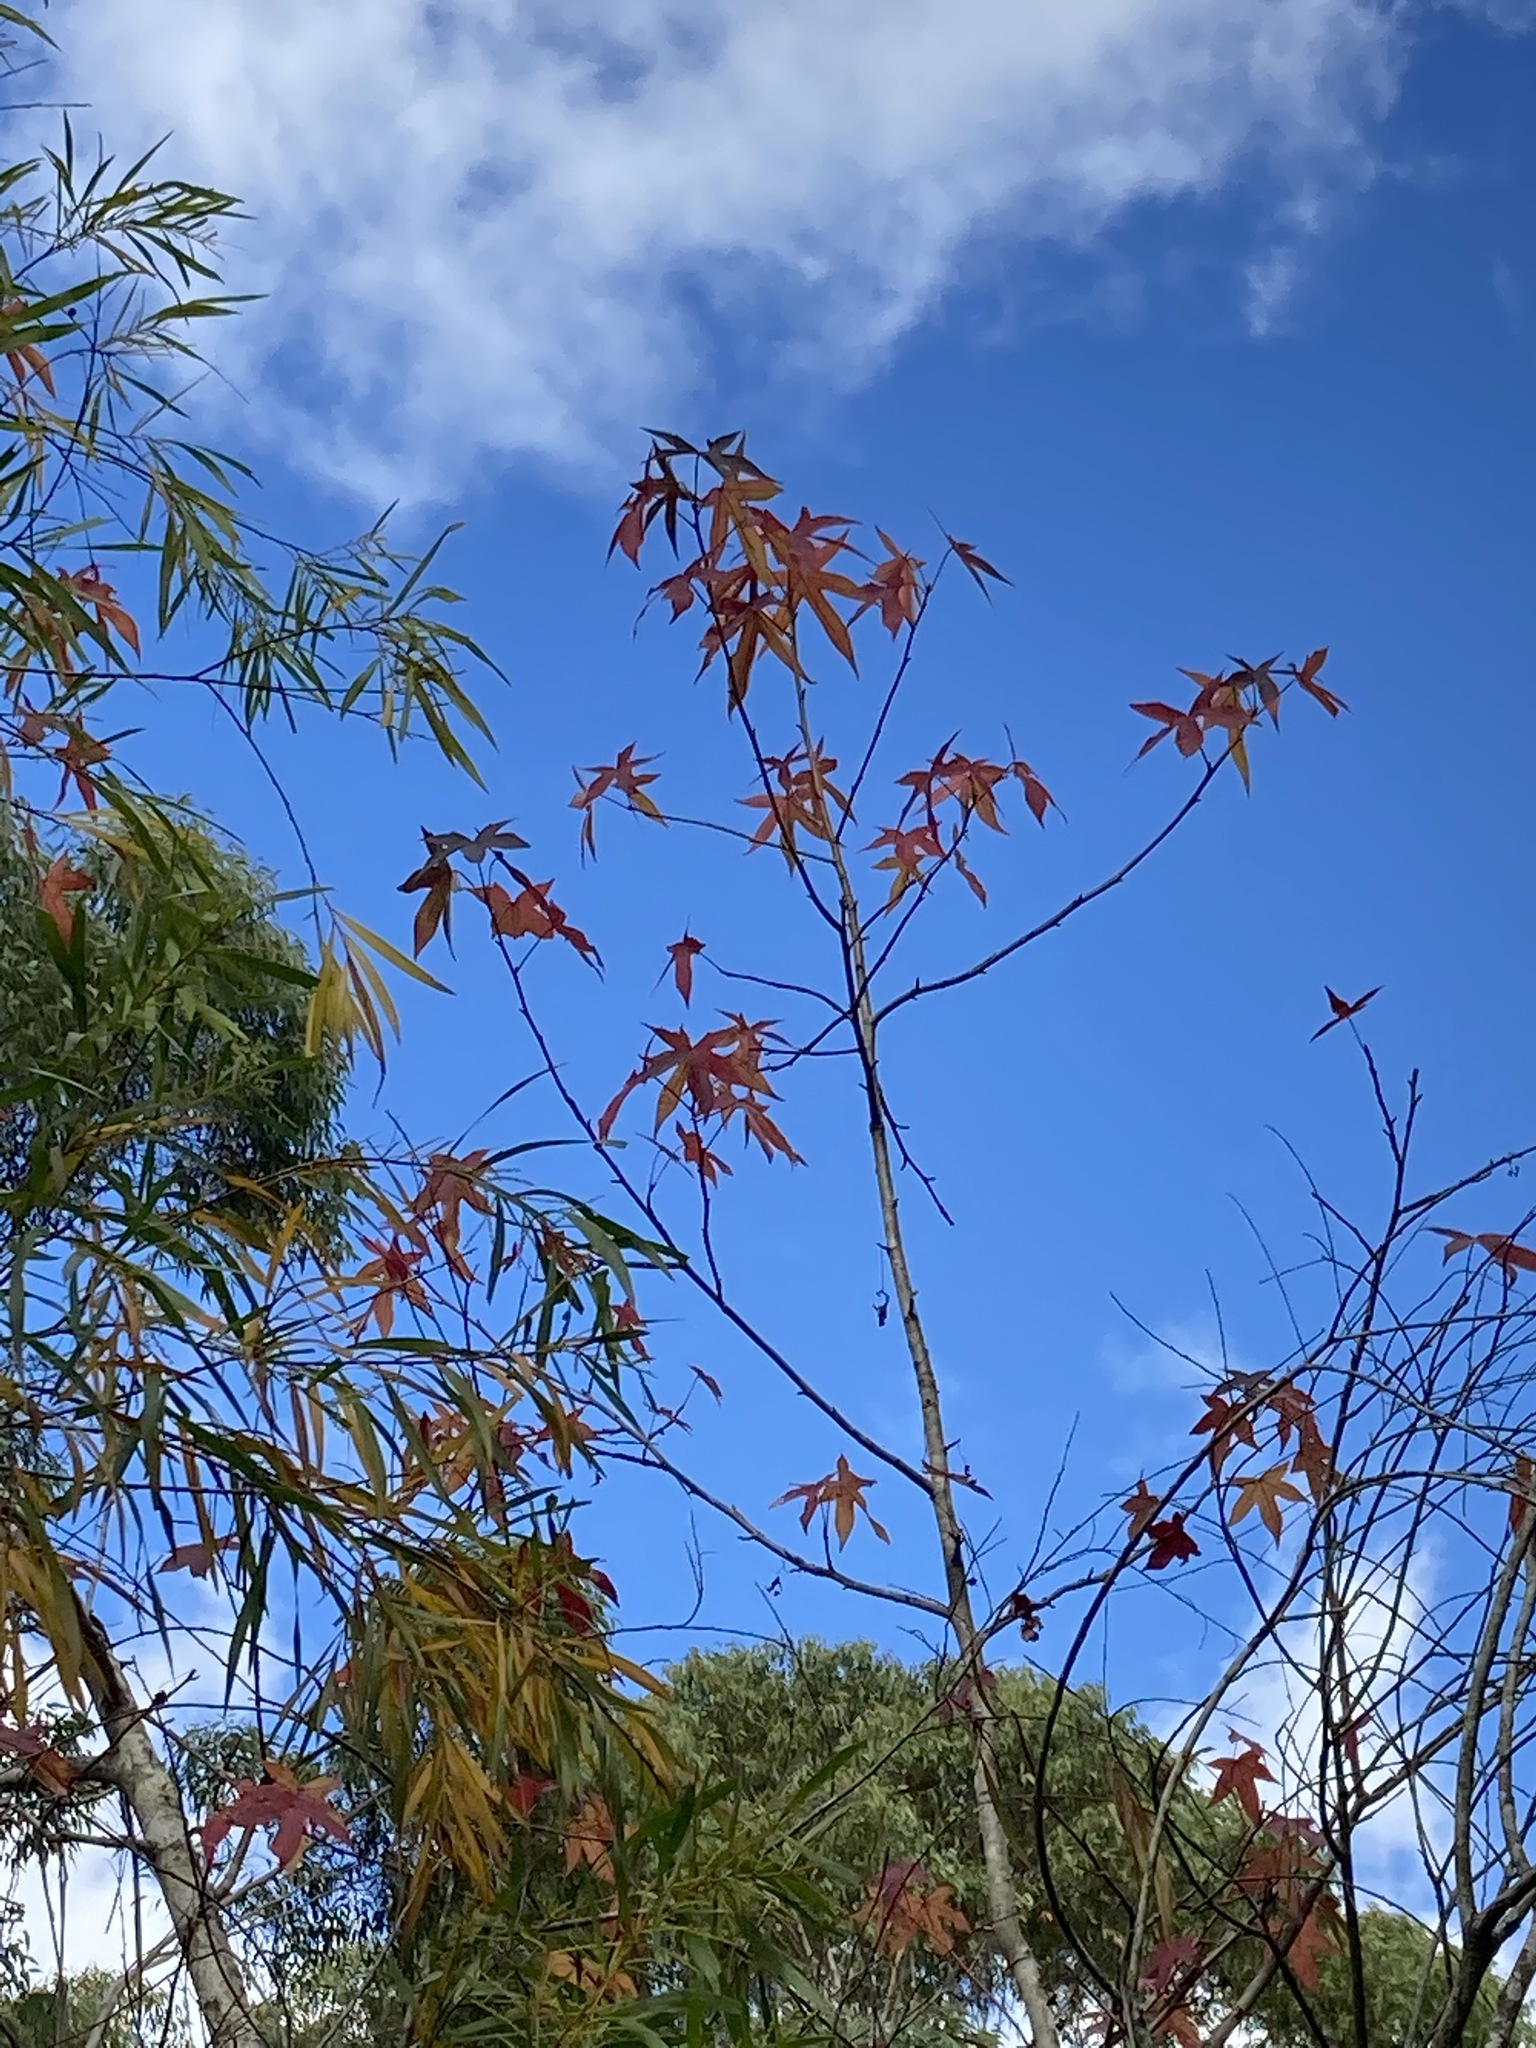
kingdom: Plantae
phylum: Tracheophyta
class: Magnoliopsida
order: Saxifragales
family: Altingiaceae
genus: Liquidambar
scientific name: Liquidambar styraciflua
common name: Sweet gum
